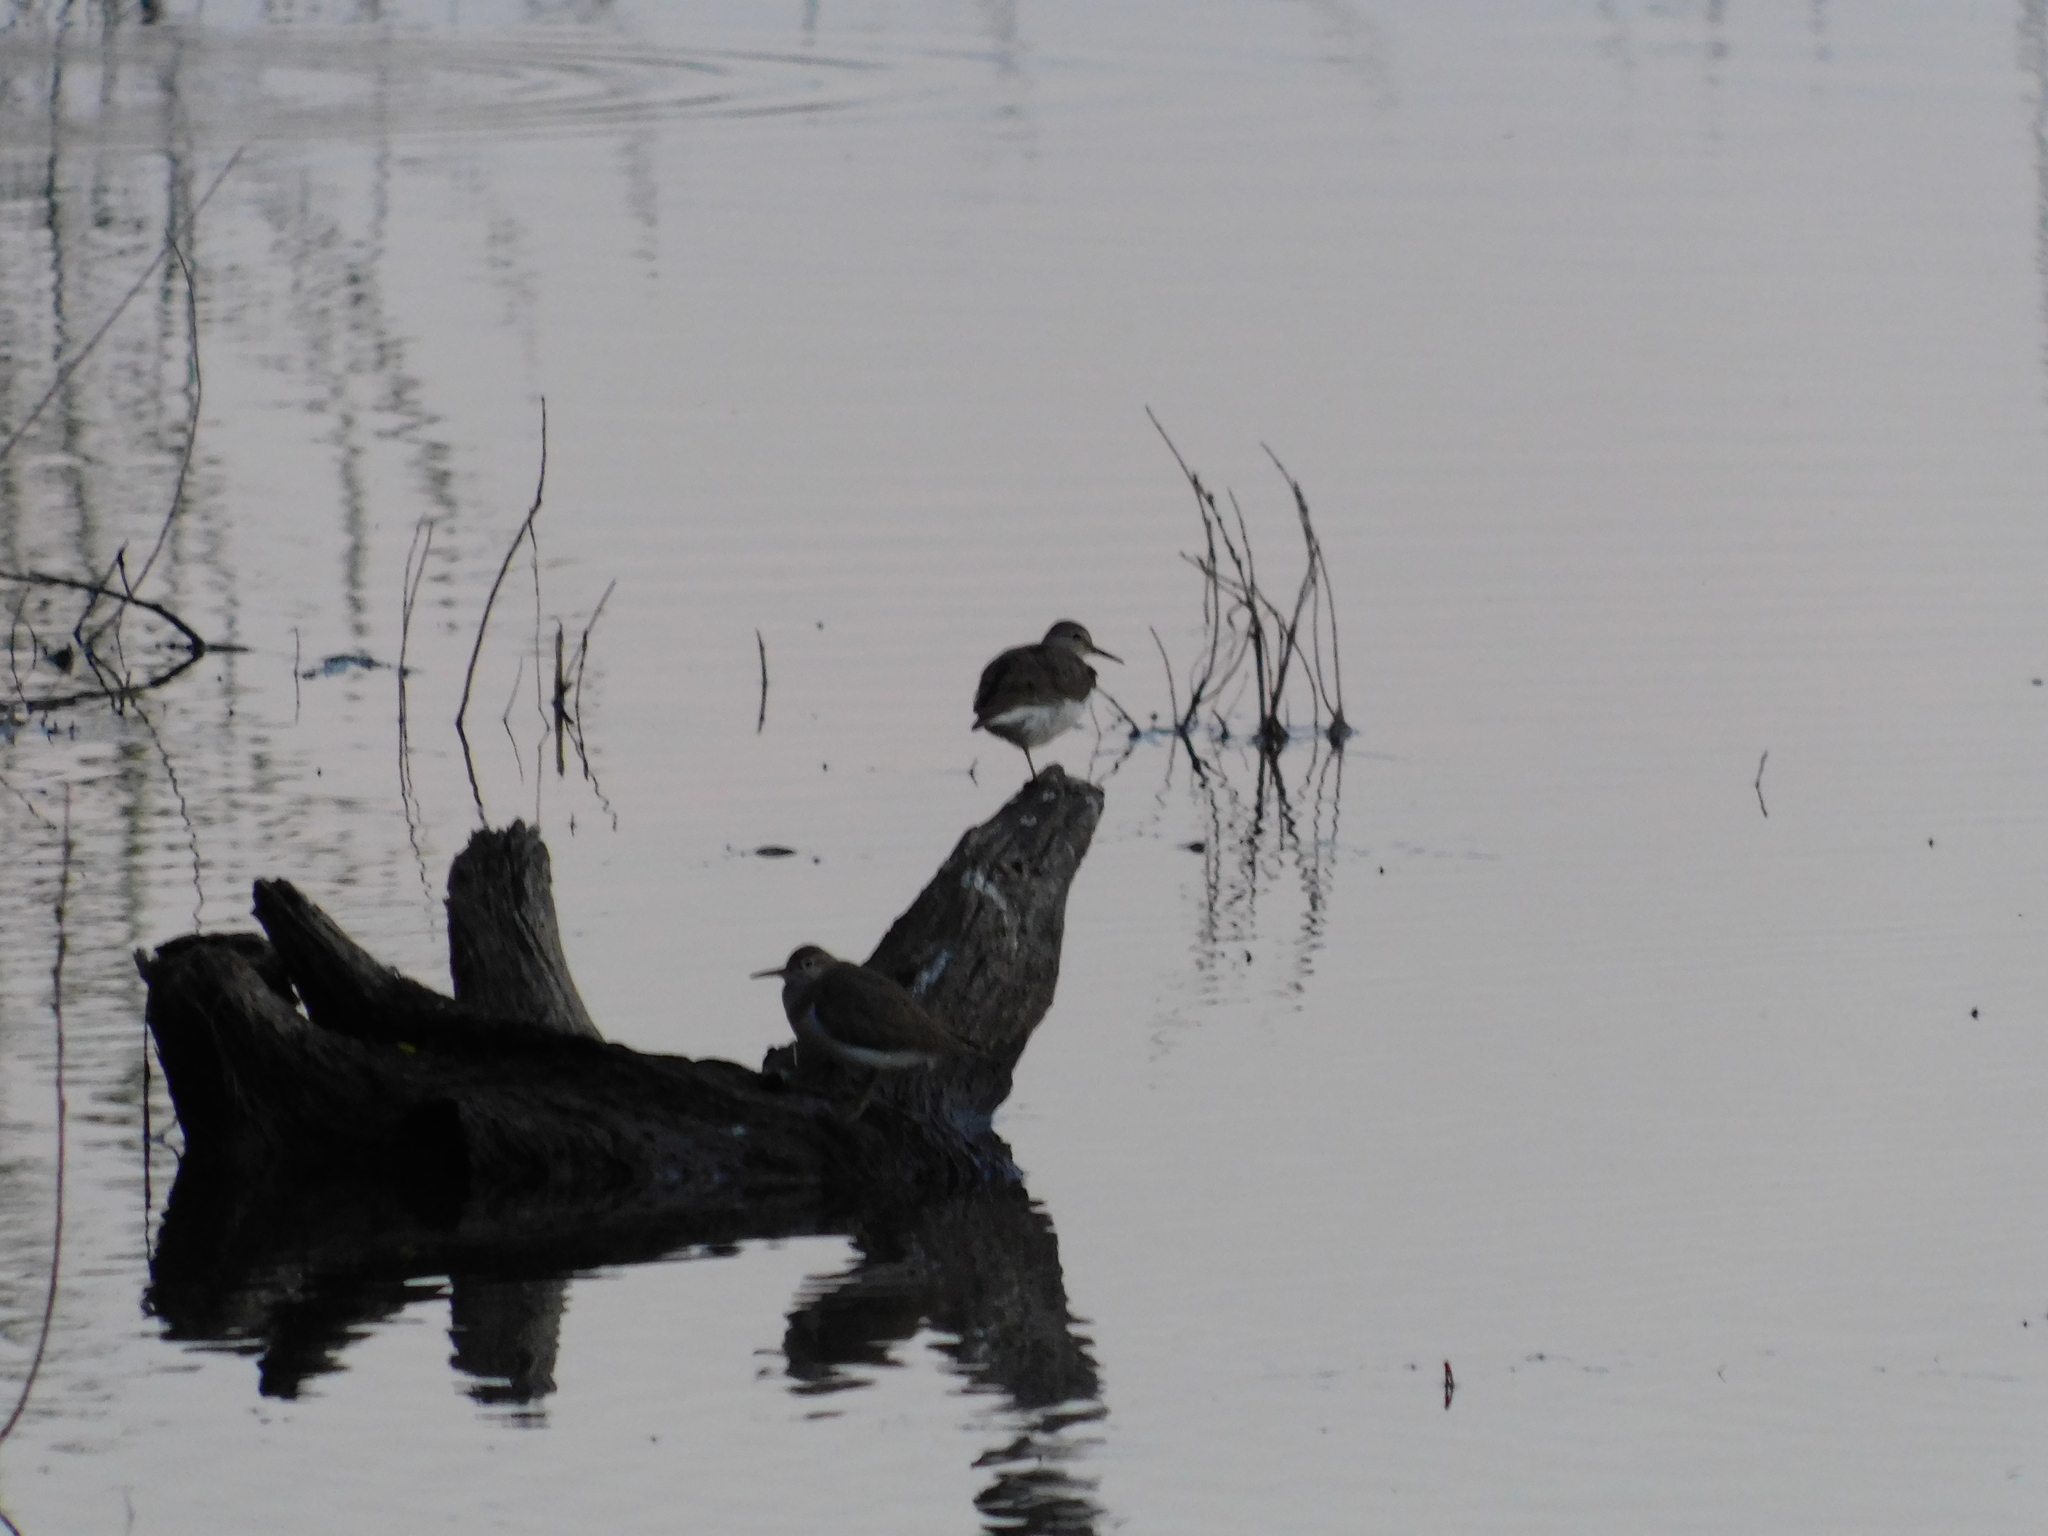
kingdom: Animalia
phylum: Chordata
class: Aves
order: Charadriiformes
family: Scolopacidae
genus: Actitis
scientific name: Actitis hypoleucos
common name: Common sandpiper
